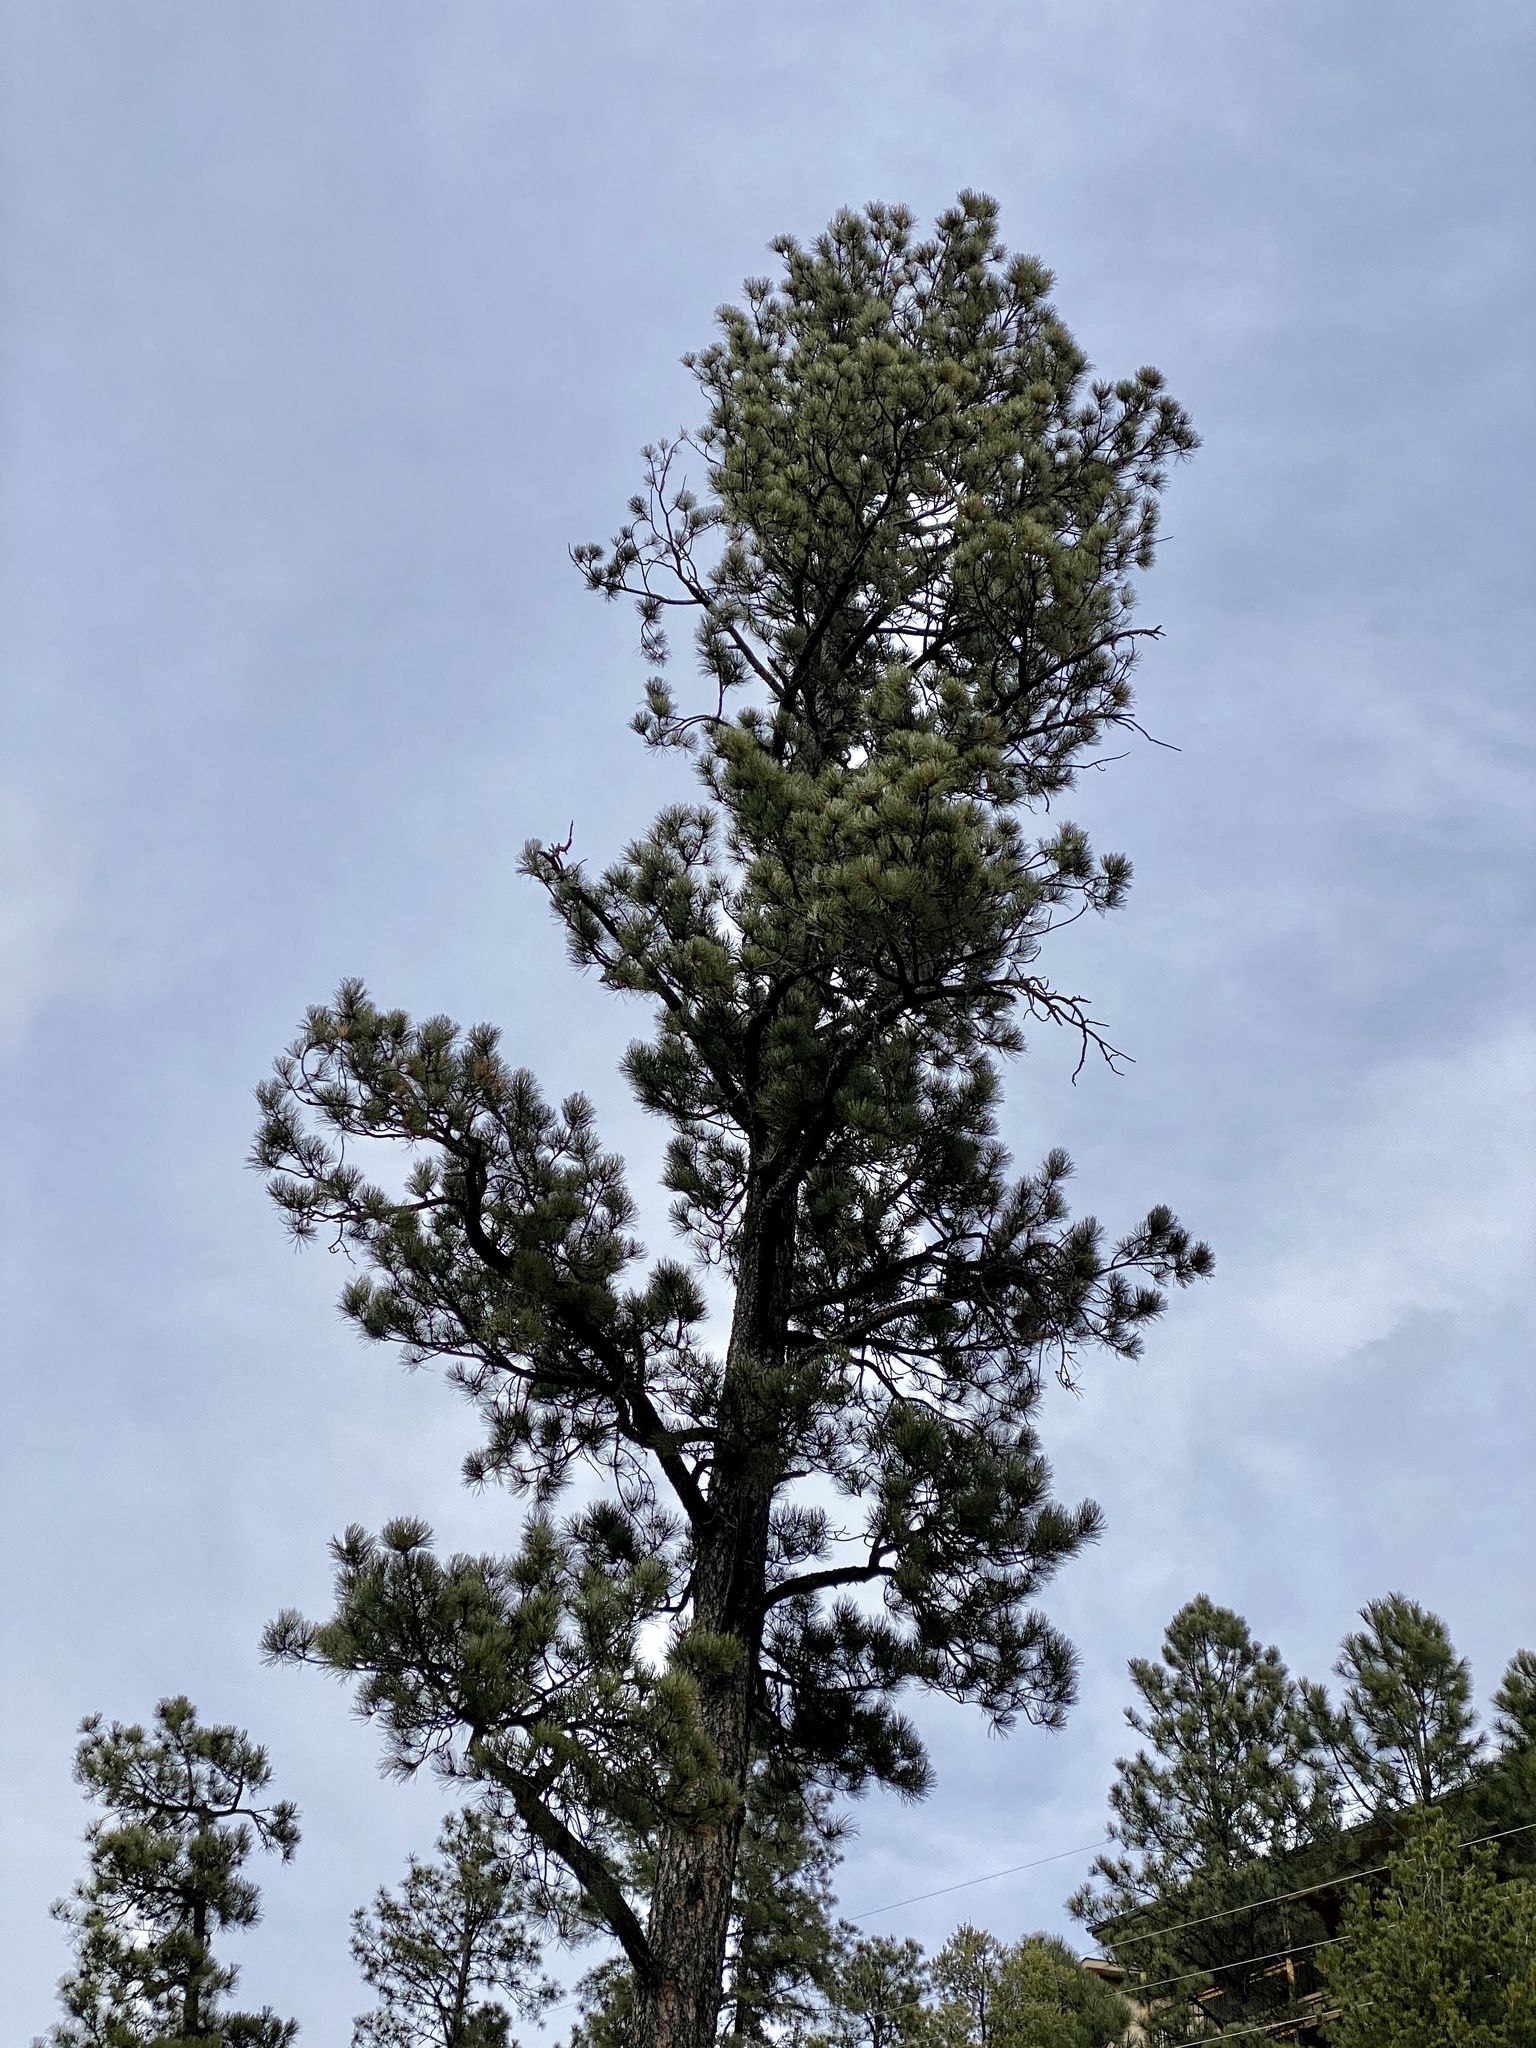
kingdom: Plantae
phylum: Tracheophyta
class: Pinopsida
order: Pinales
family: Pinaceae
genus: Pinus
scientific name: Pinus ponderosa
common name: Western yellow-pine
